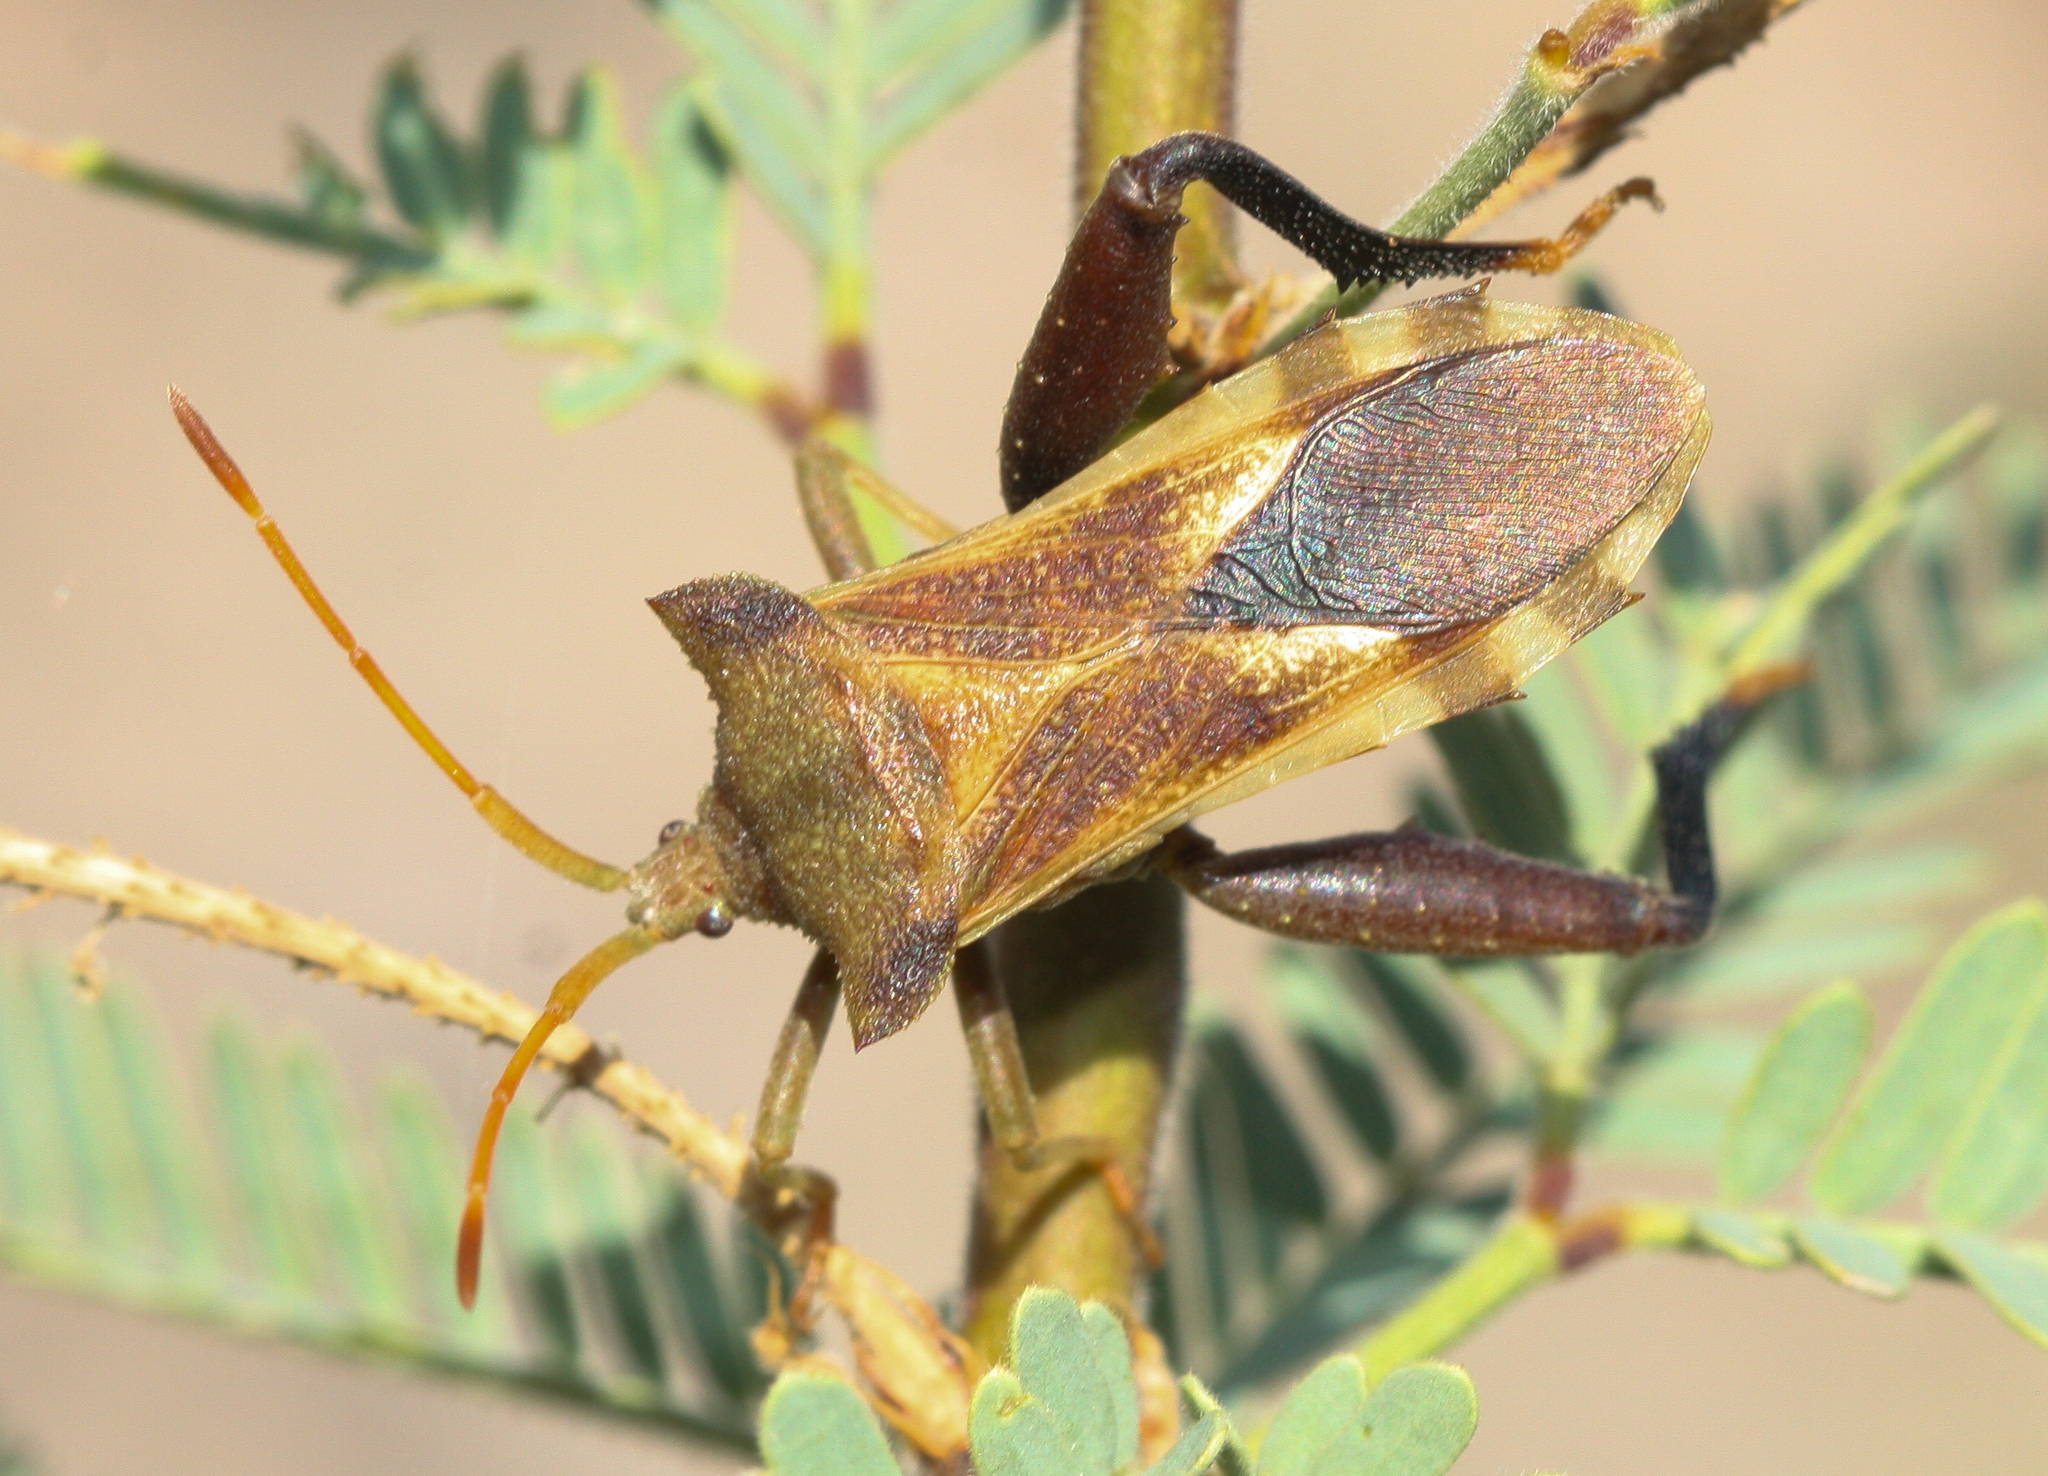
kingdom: Animalia
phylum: Arthropoda
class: Insecta
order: Hemiptera
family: Coreidae
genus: Mozena
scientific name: Mozena arizonensis
